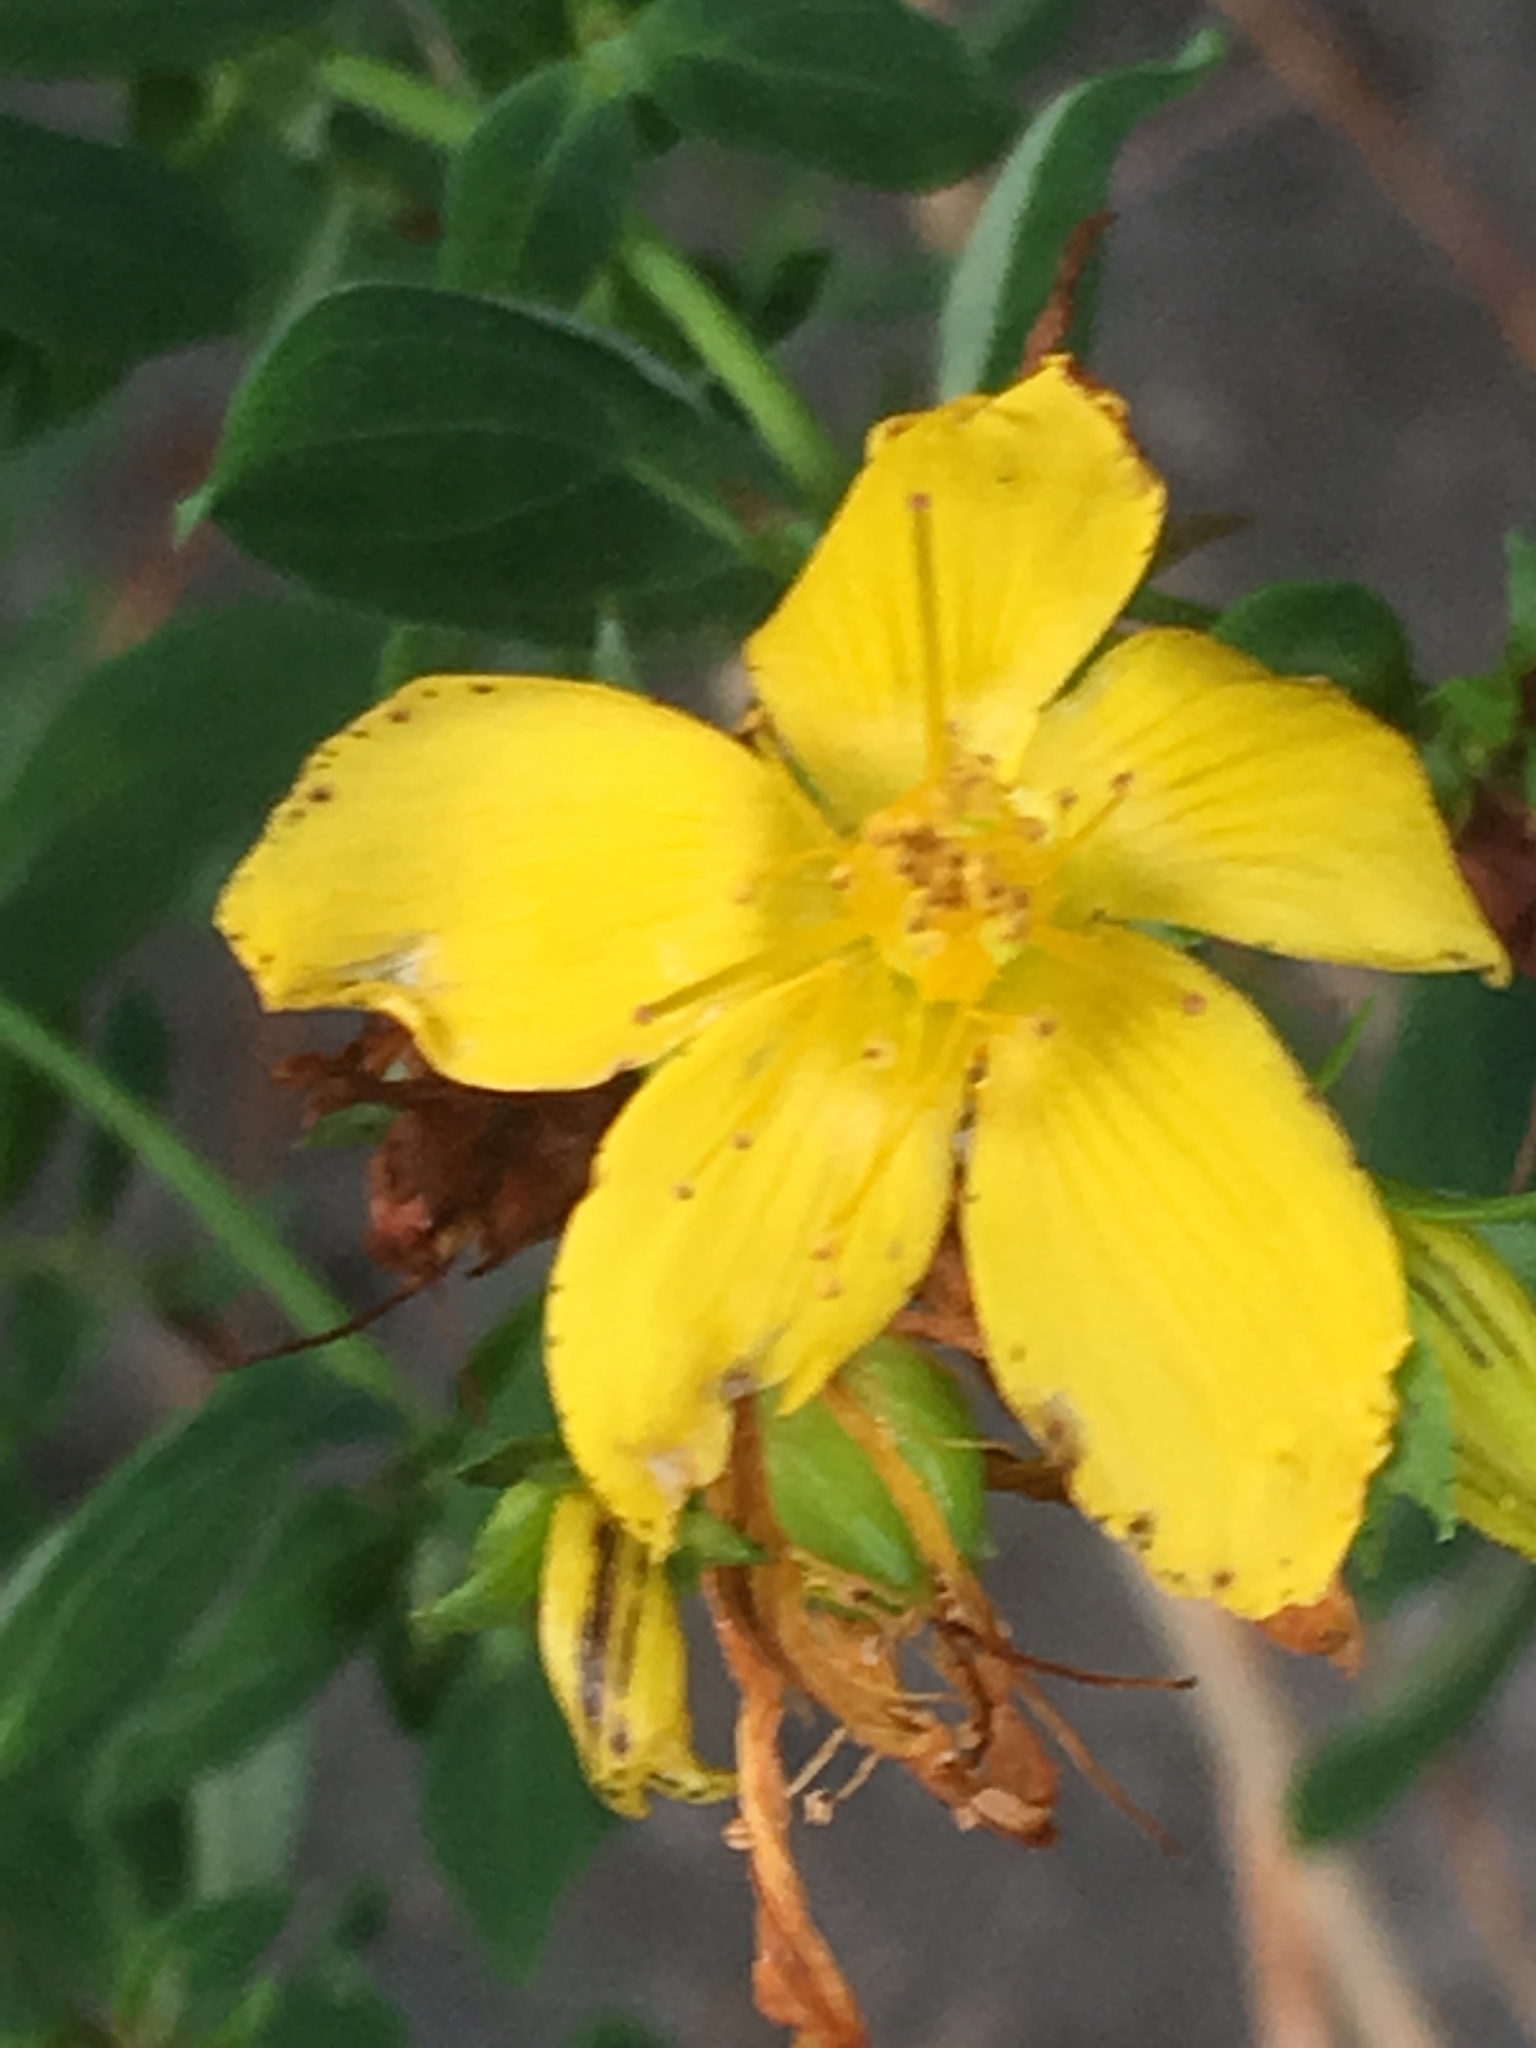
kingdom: Plantae
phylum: Tracheophyta
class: Magnoliopsida
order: Malpighiales
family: Hypericaceae
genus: Hypericum
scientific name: Hypericum perforatum
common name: Common st. johnswort
